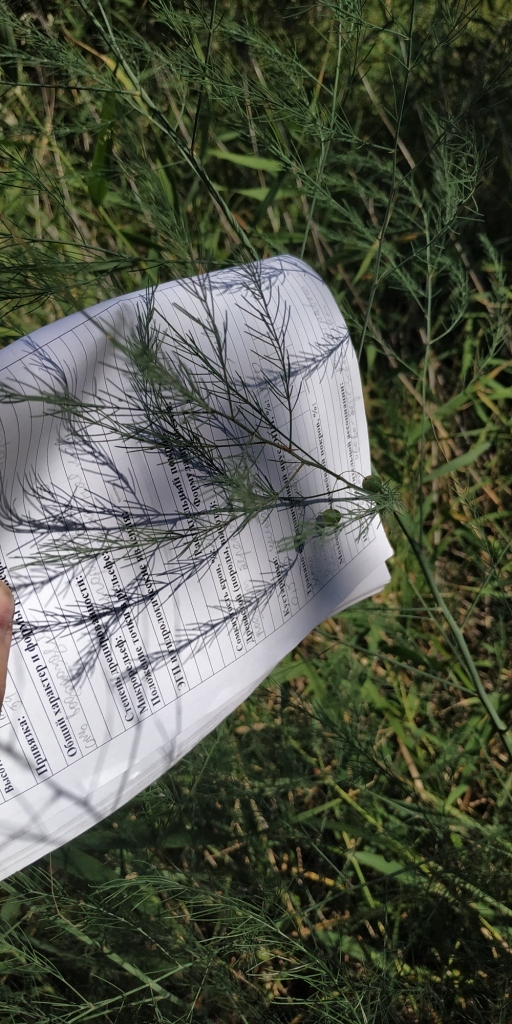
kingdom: Plantae
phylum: Tracheophyta
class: Liliopsida
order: Asparagales
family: Asparagaceae
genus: Asparagus
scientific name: Asparagus officinalis
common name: Garden asparagus
